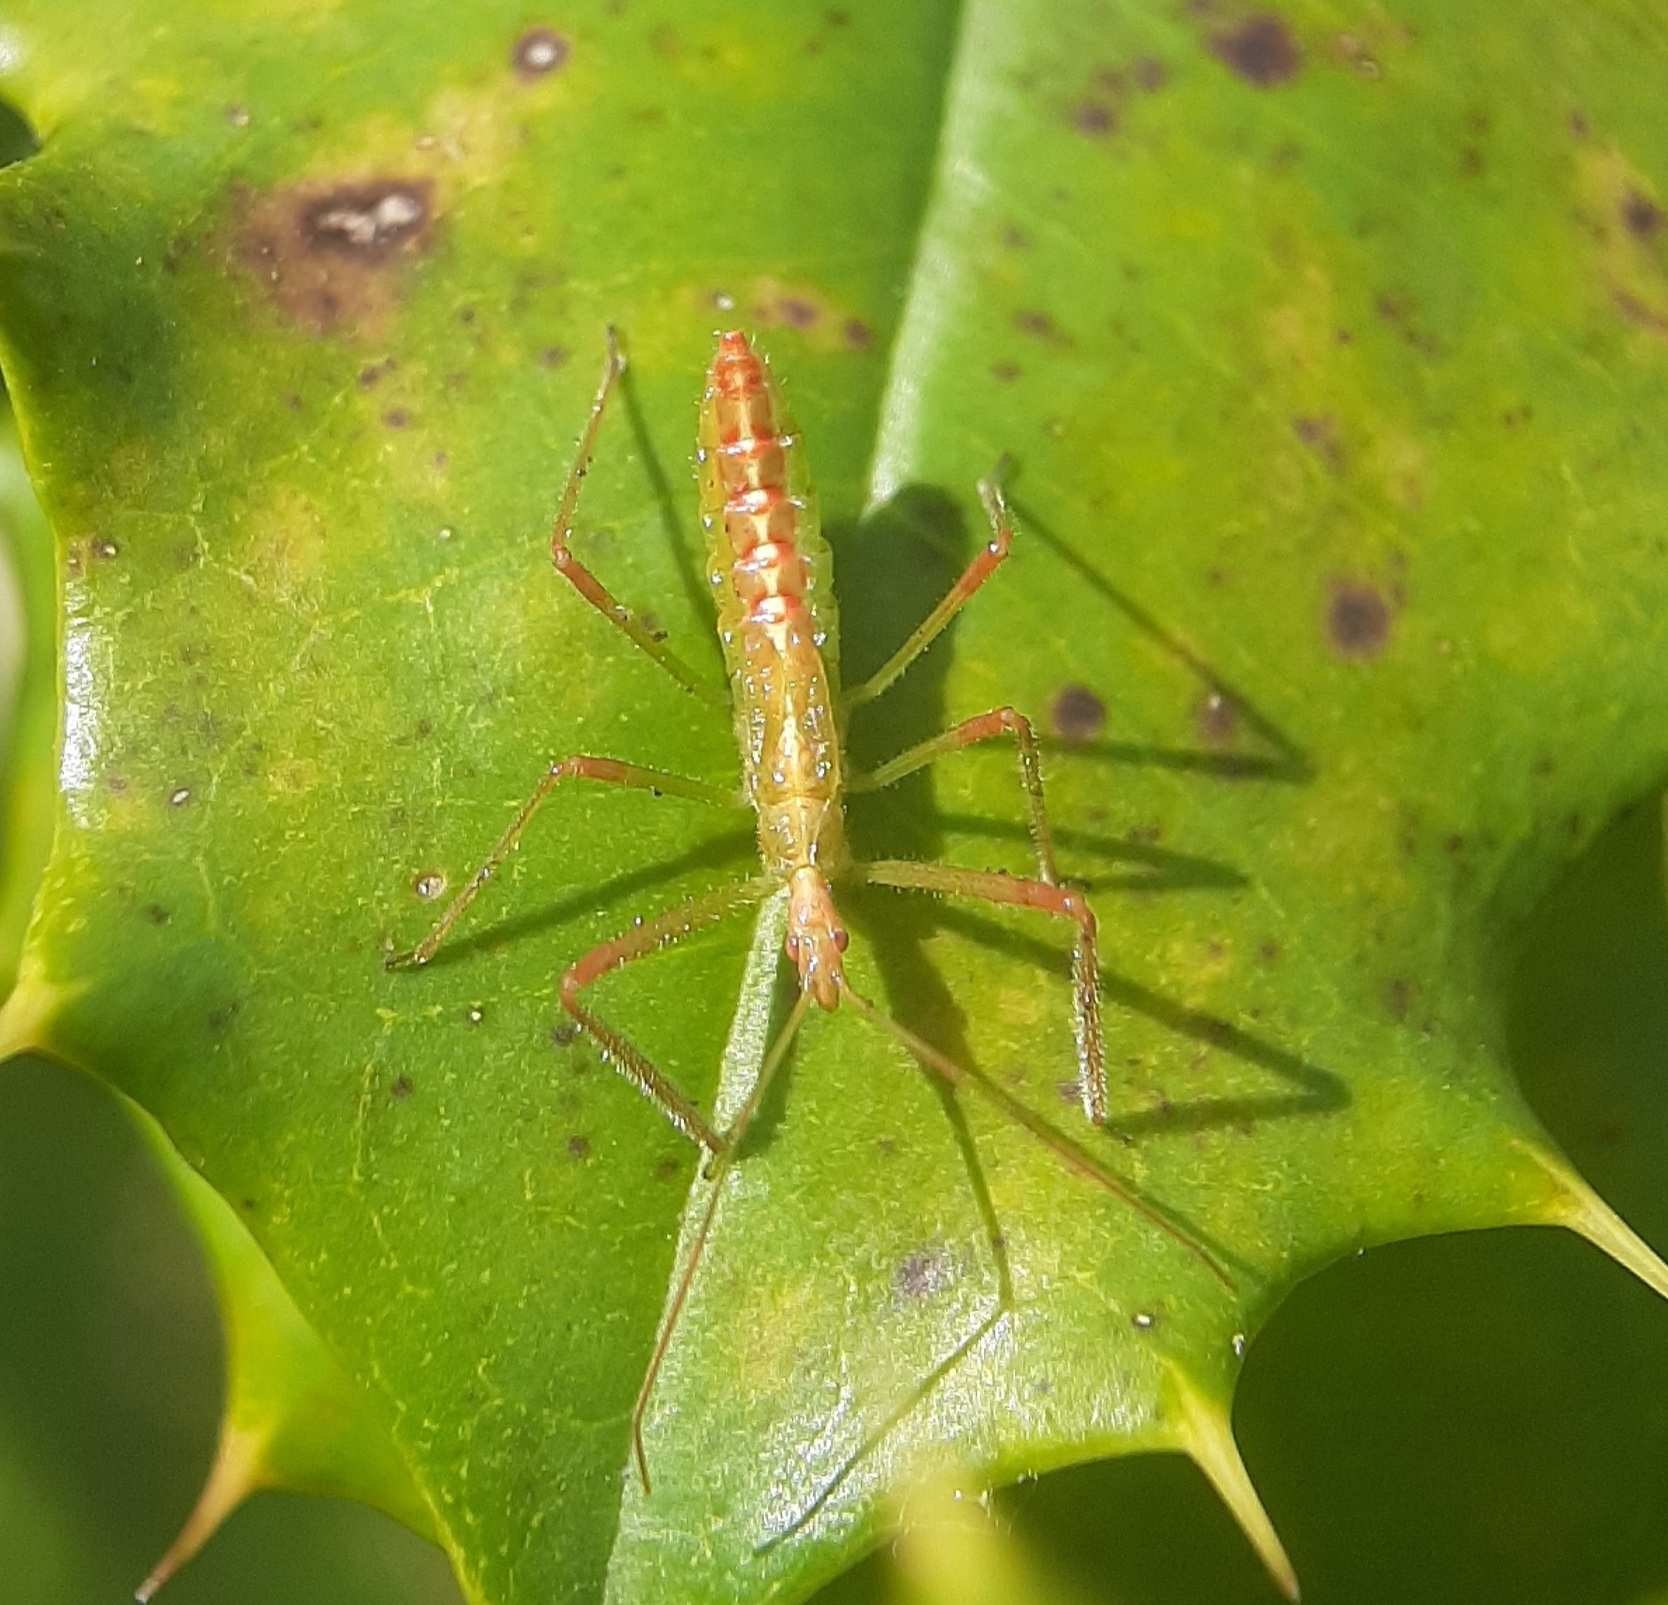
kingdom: Animalia
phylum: Arthropoda
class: Insecta
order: Hemiptera
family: Reduviidae
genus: Zelus
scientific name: Zelus luridus
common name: Pale green assassin bug
